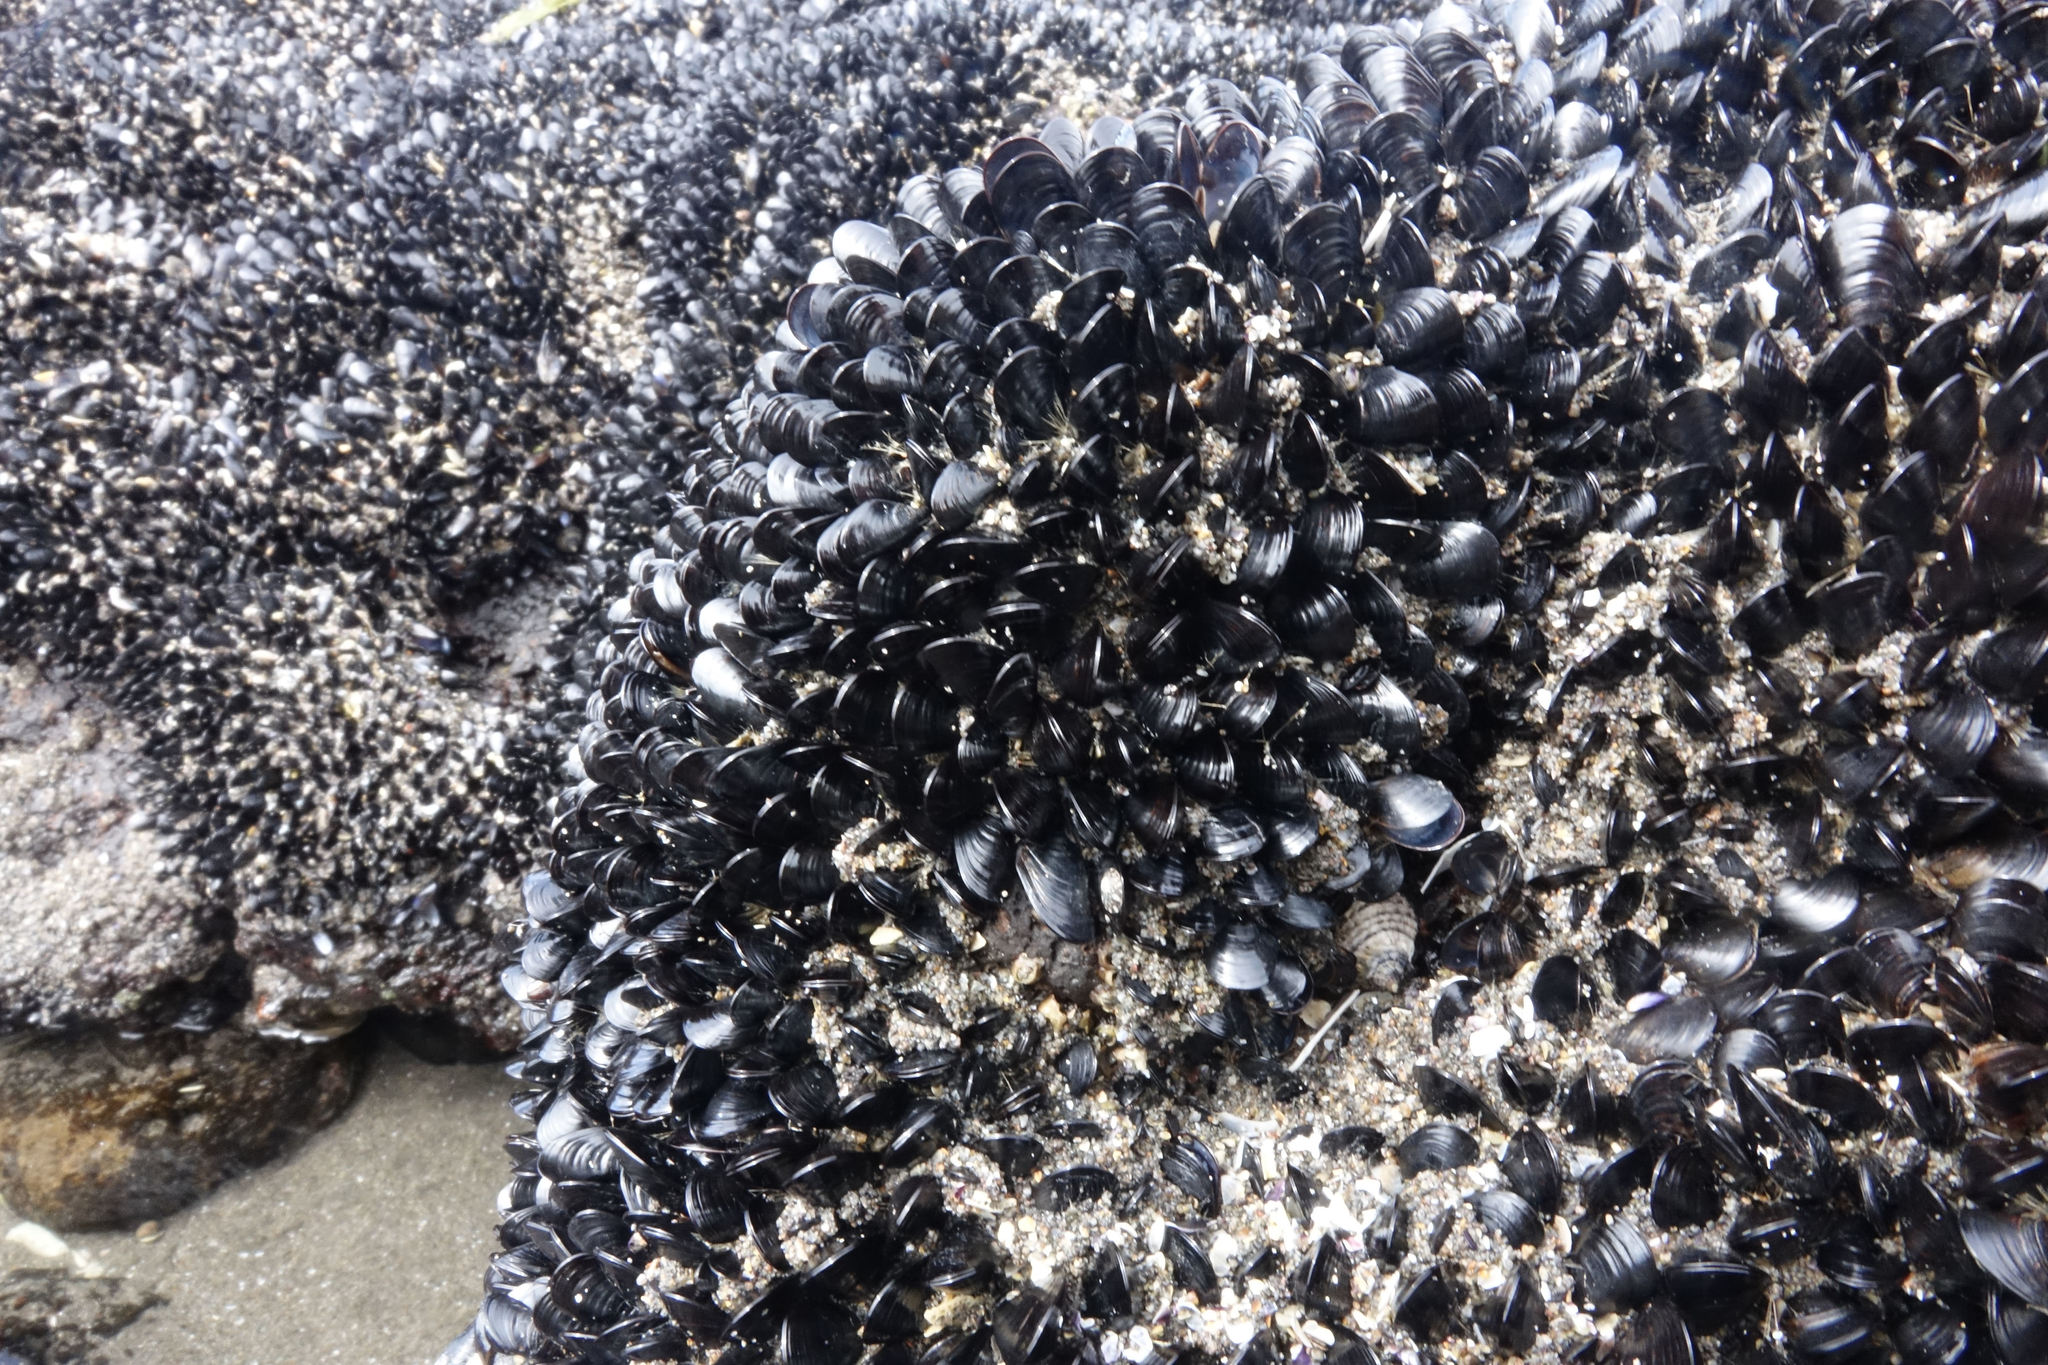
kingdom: Animalia
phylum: Mollusca
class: Bivalvia
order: Mytilida
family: Mytilidae
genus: Xenostrobus
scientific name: Xenostrobus neozelanicus
